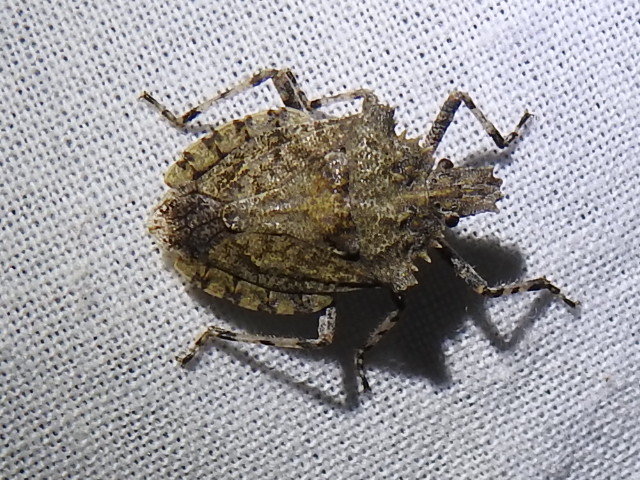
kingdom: Animalia
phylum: Arthropoda
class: Insecta
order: Hemiptera
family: Pentatomidae
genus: Brochymena
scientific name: Brochymena arborea
